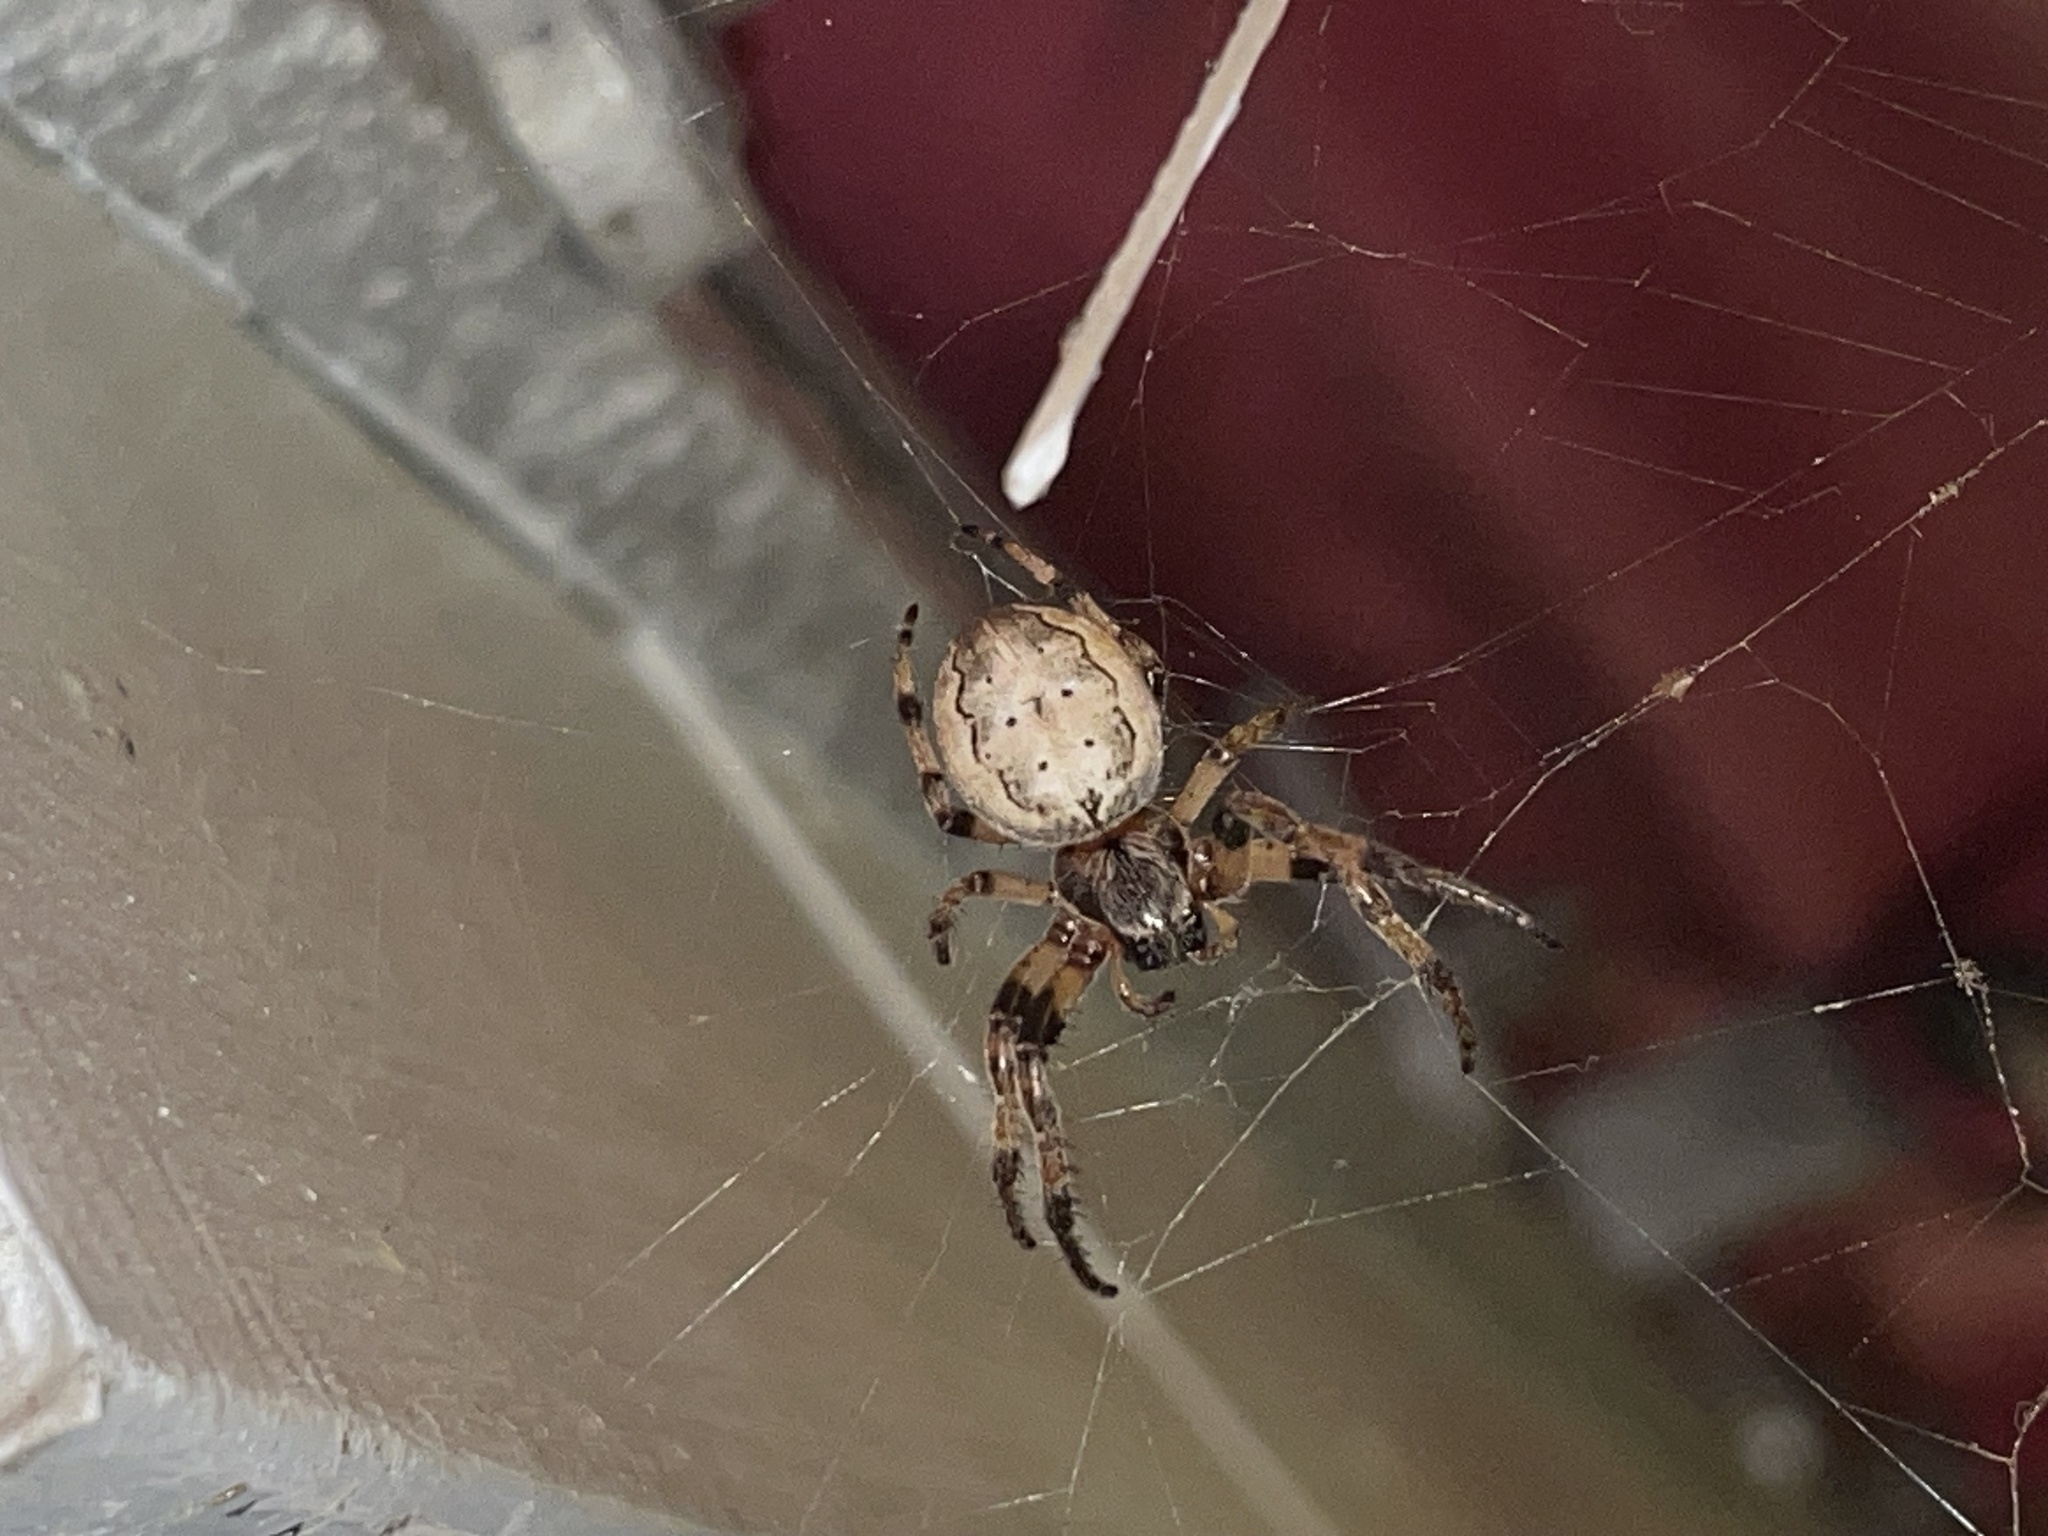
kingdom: Animalia
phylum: Arthropoda
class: Arachnida
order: Araneae
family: Araneidae
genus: Larinioides
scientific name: Larinioides cornutus
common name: Furrow orbweaver
